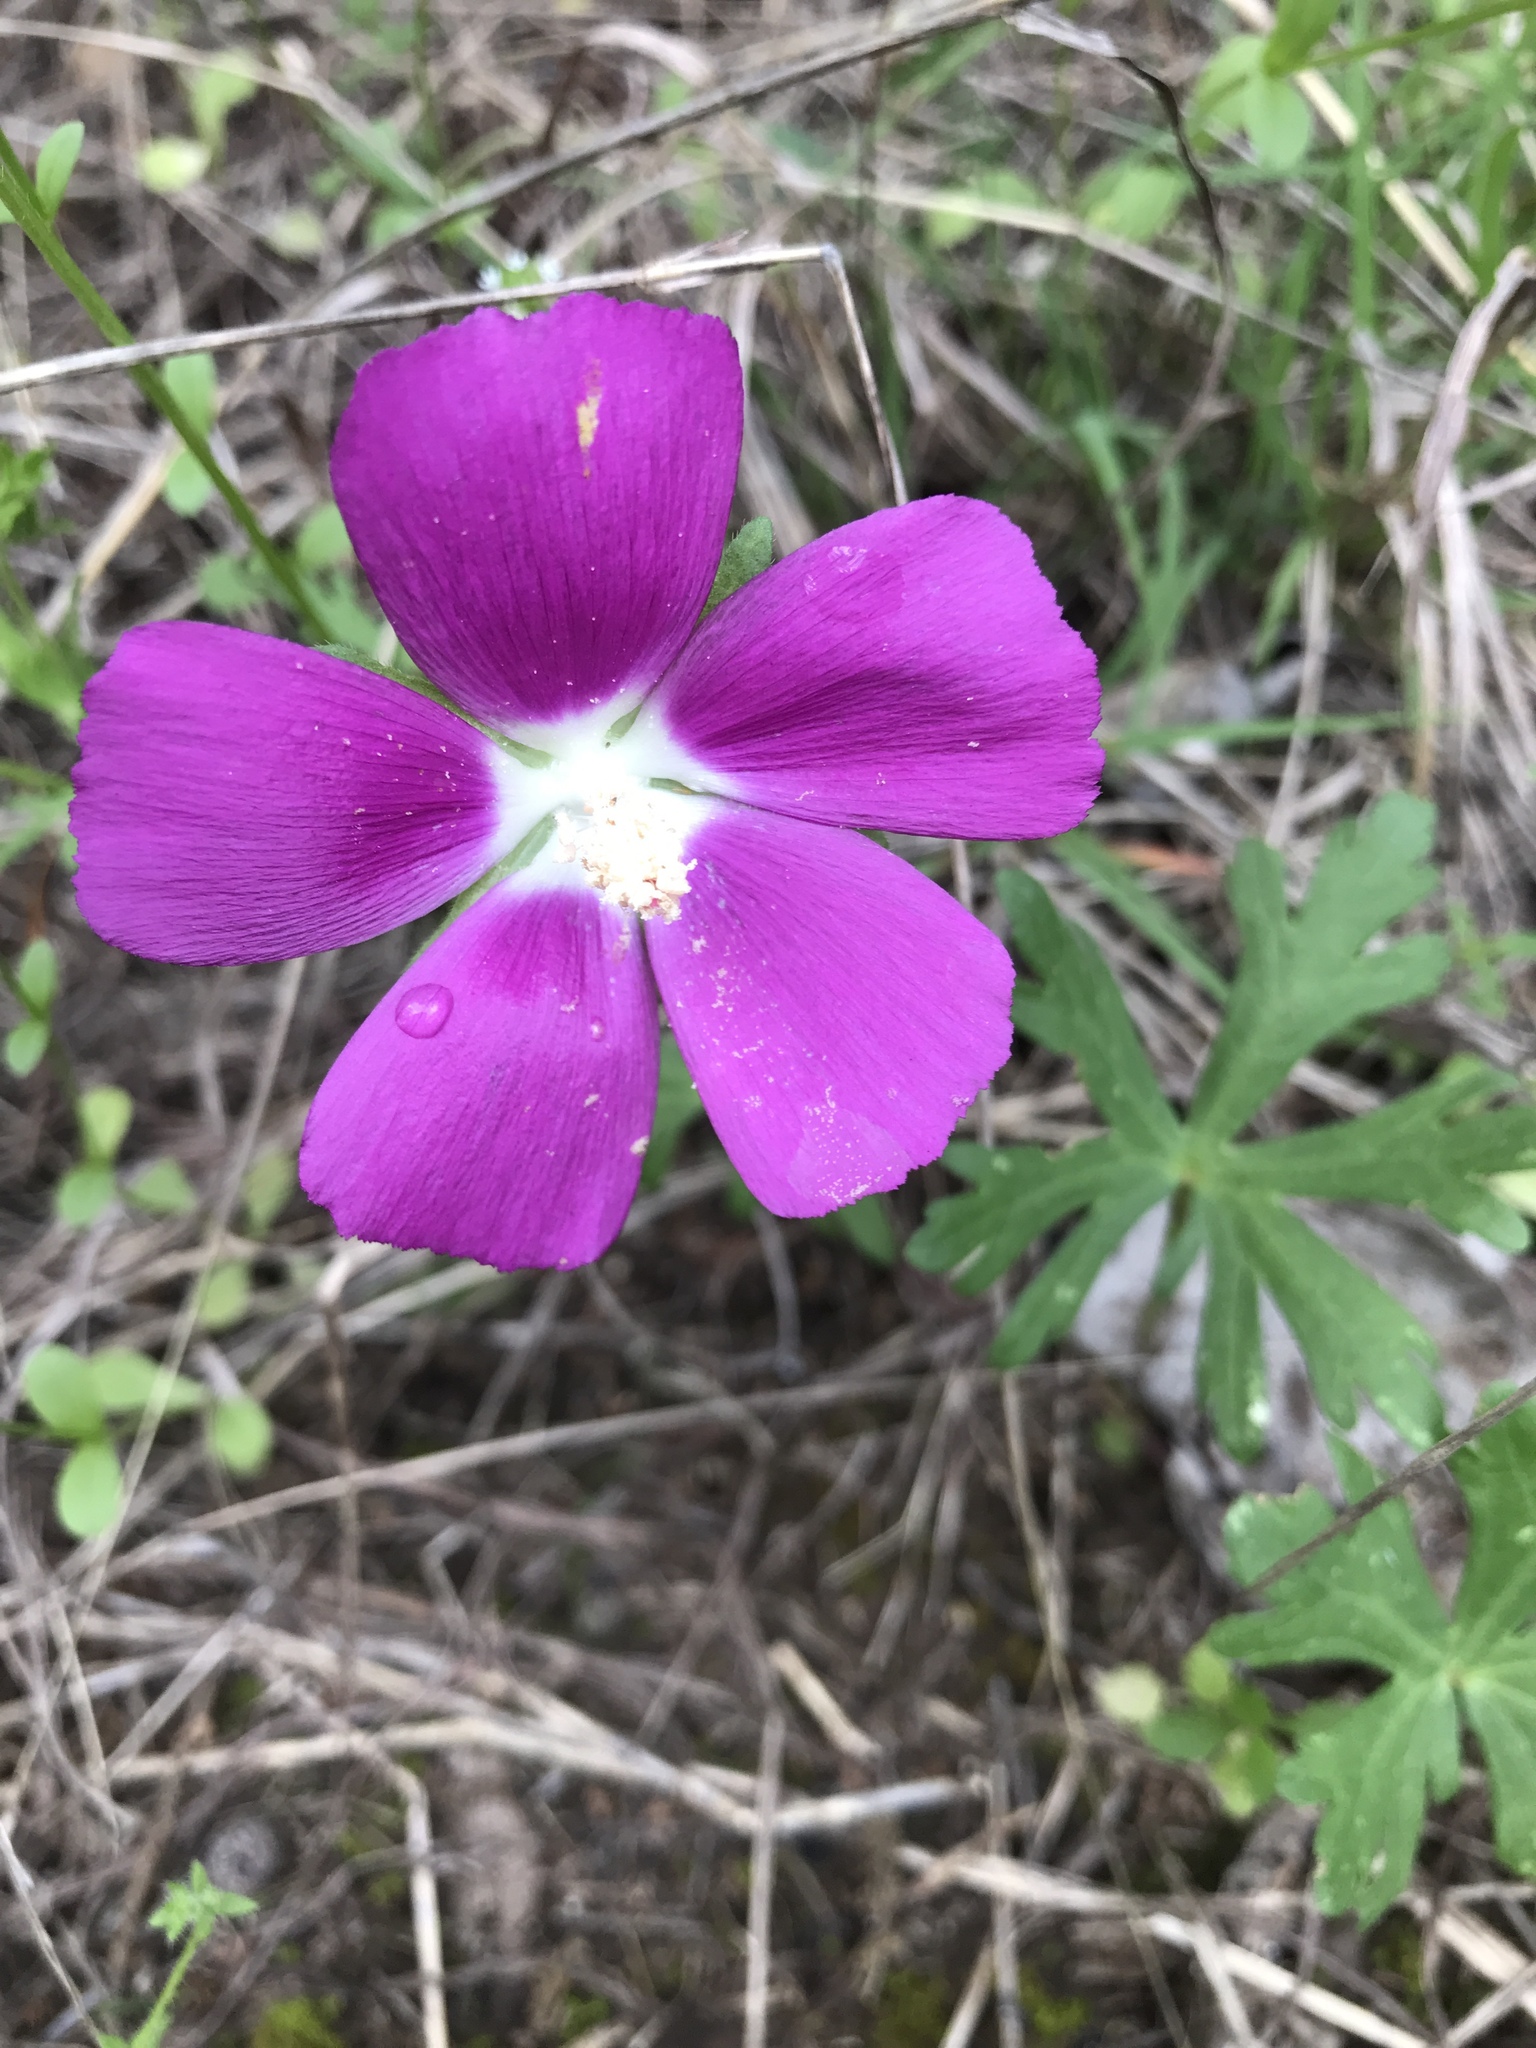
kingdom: Plantae
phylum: Tracheophyta
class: Magnoliopsida
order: Malvales
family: Malvaceae
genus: Callirhoe
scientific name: Callirhoe involucrata
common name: Purple poppy-mallow
